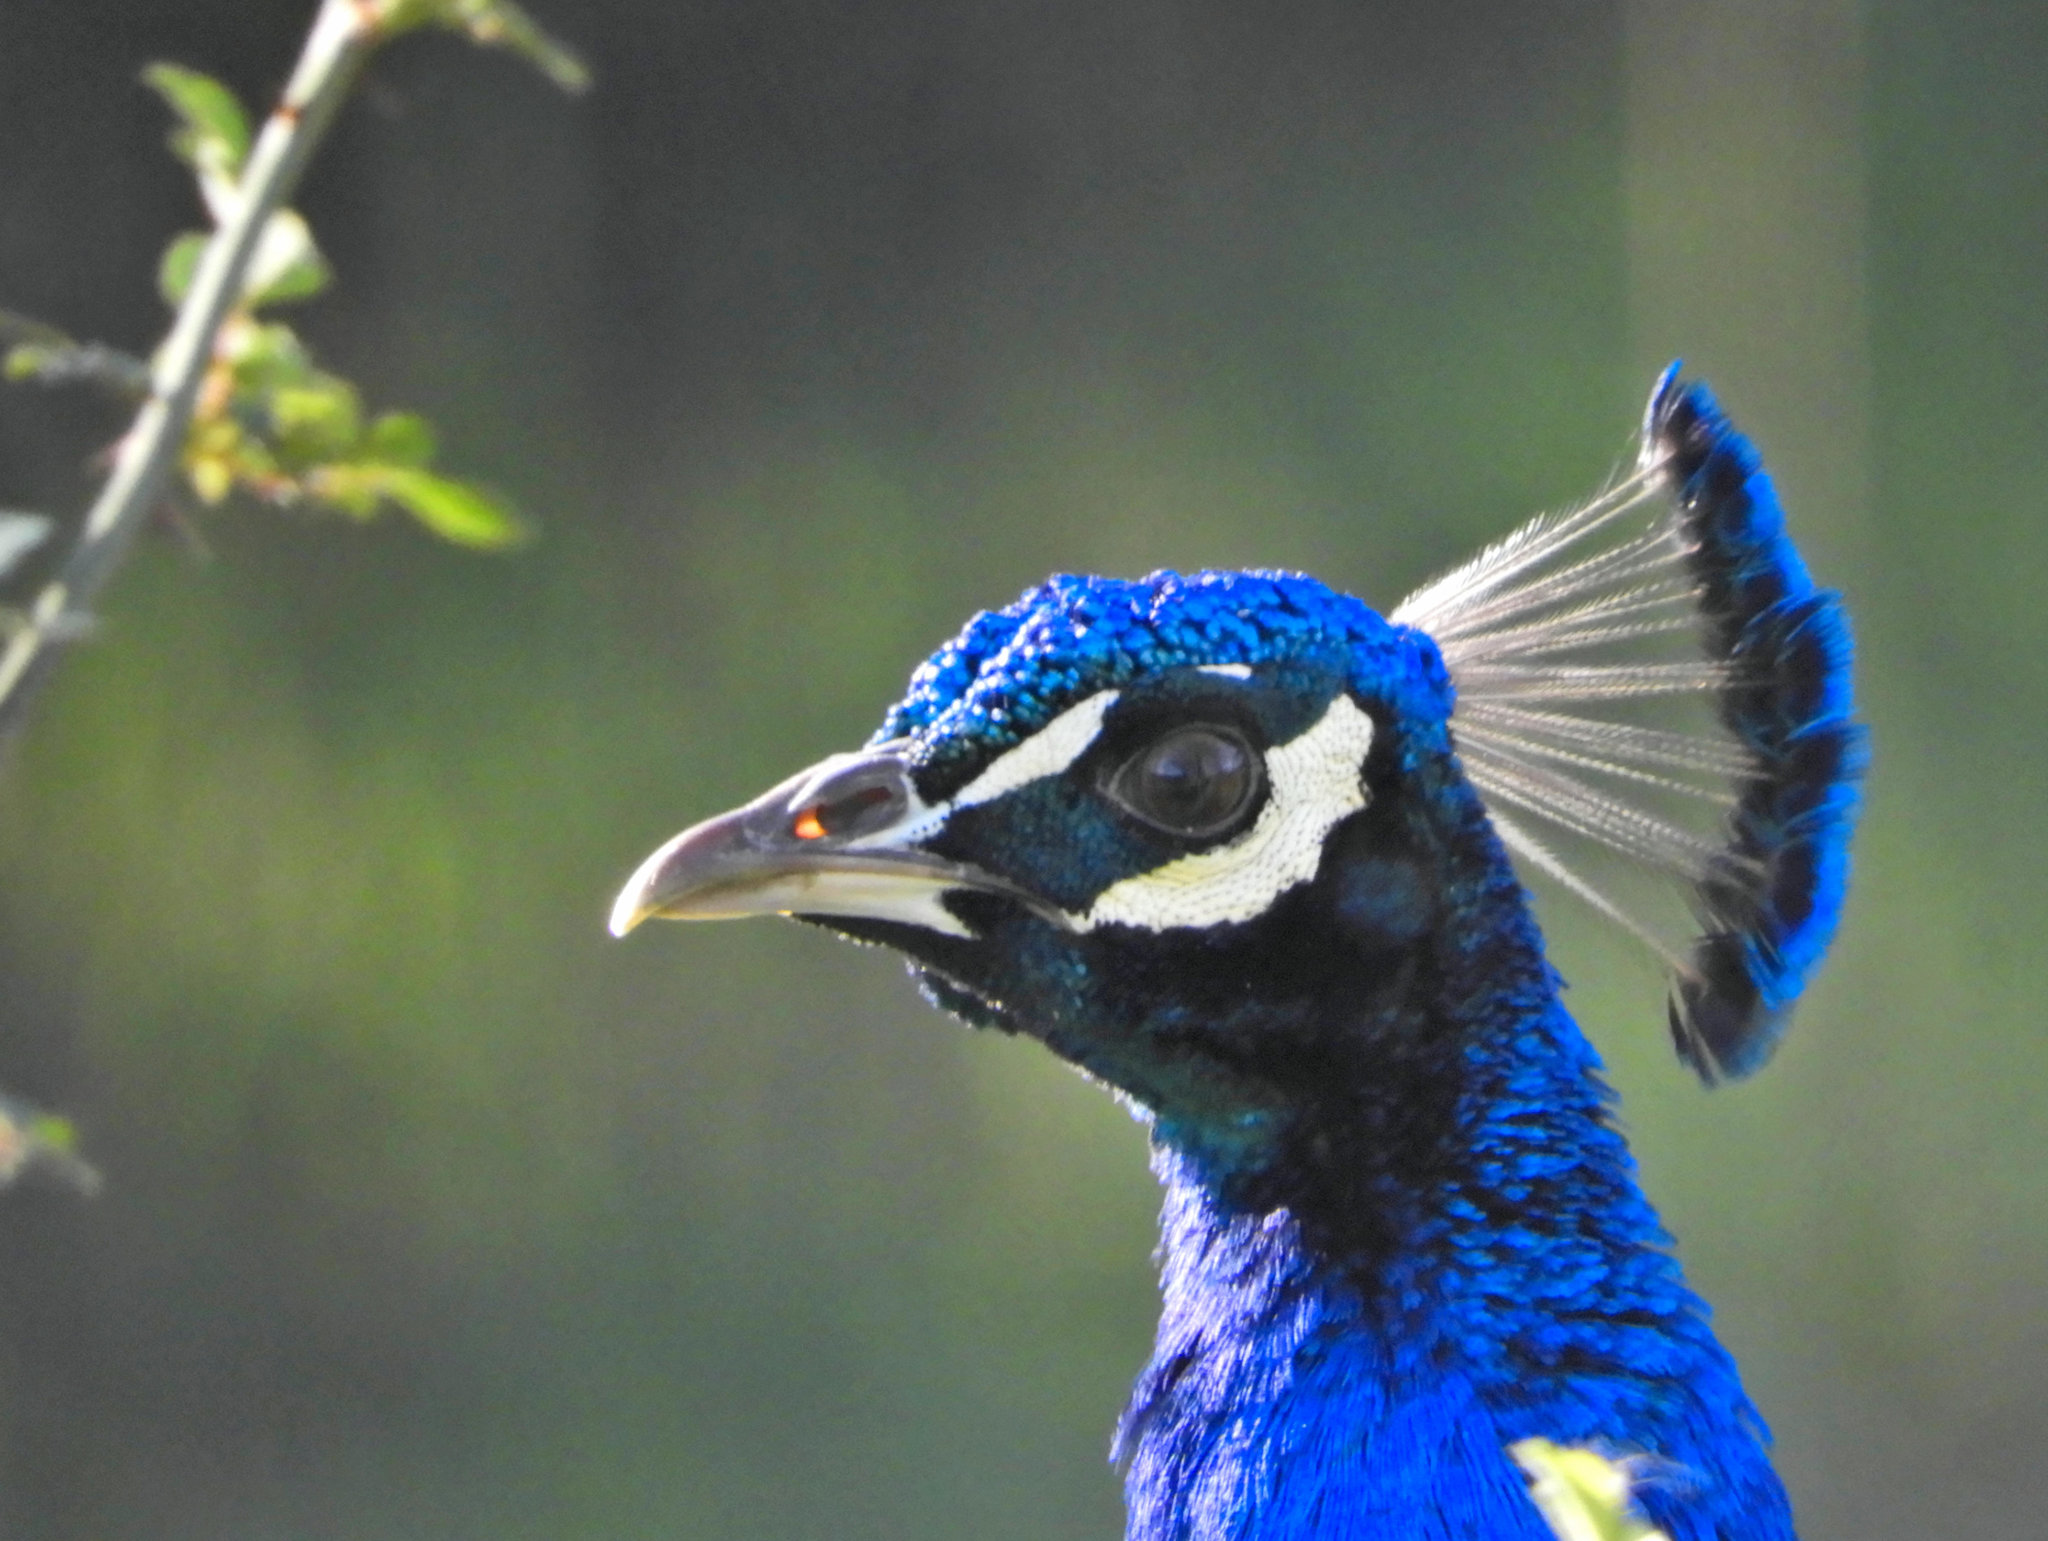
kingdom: Animalia
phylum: Chordata
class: Aves
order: Galliformes
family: Phasianidae
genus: Pavo
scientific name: Pavo cristatus
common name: Indian peafowl
